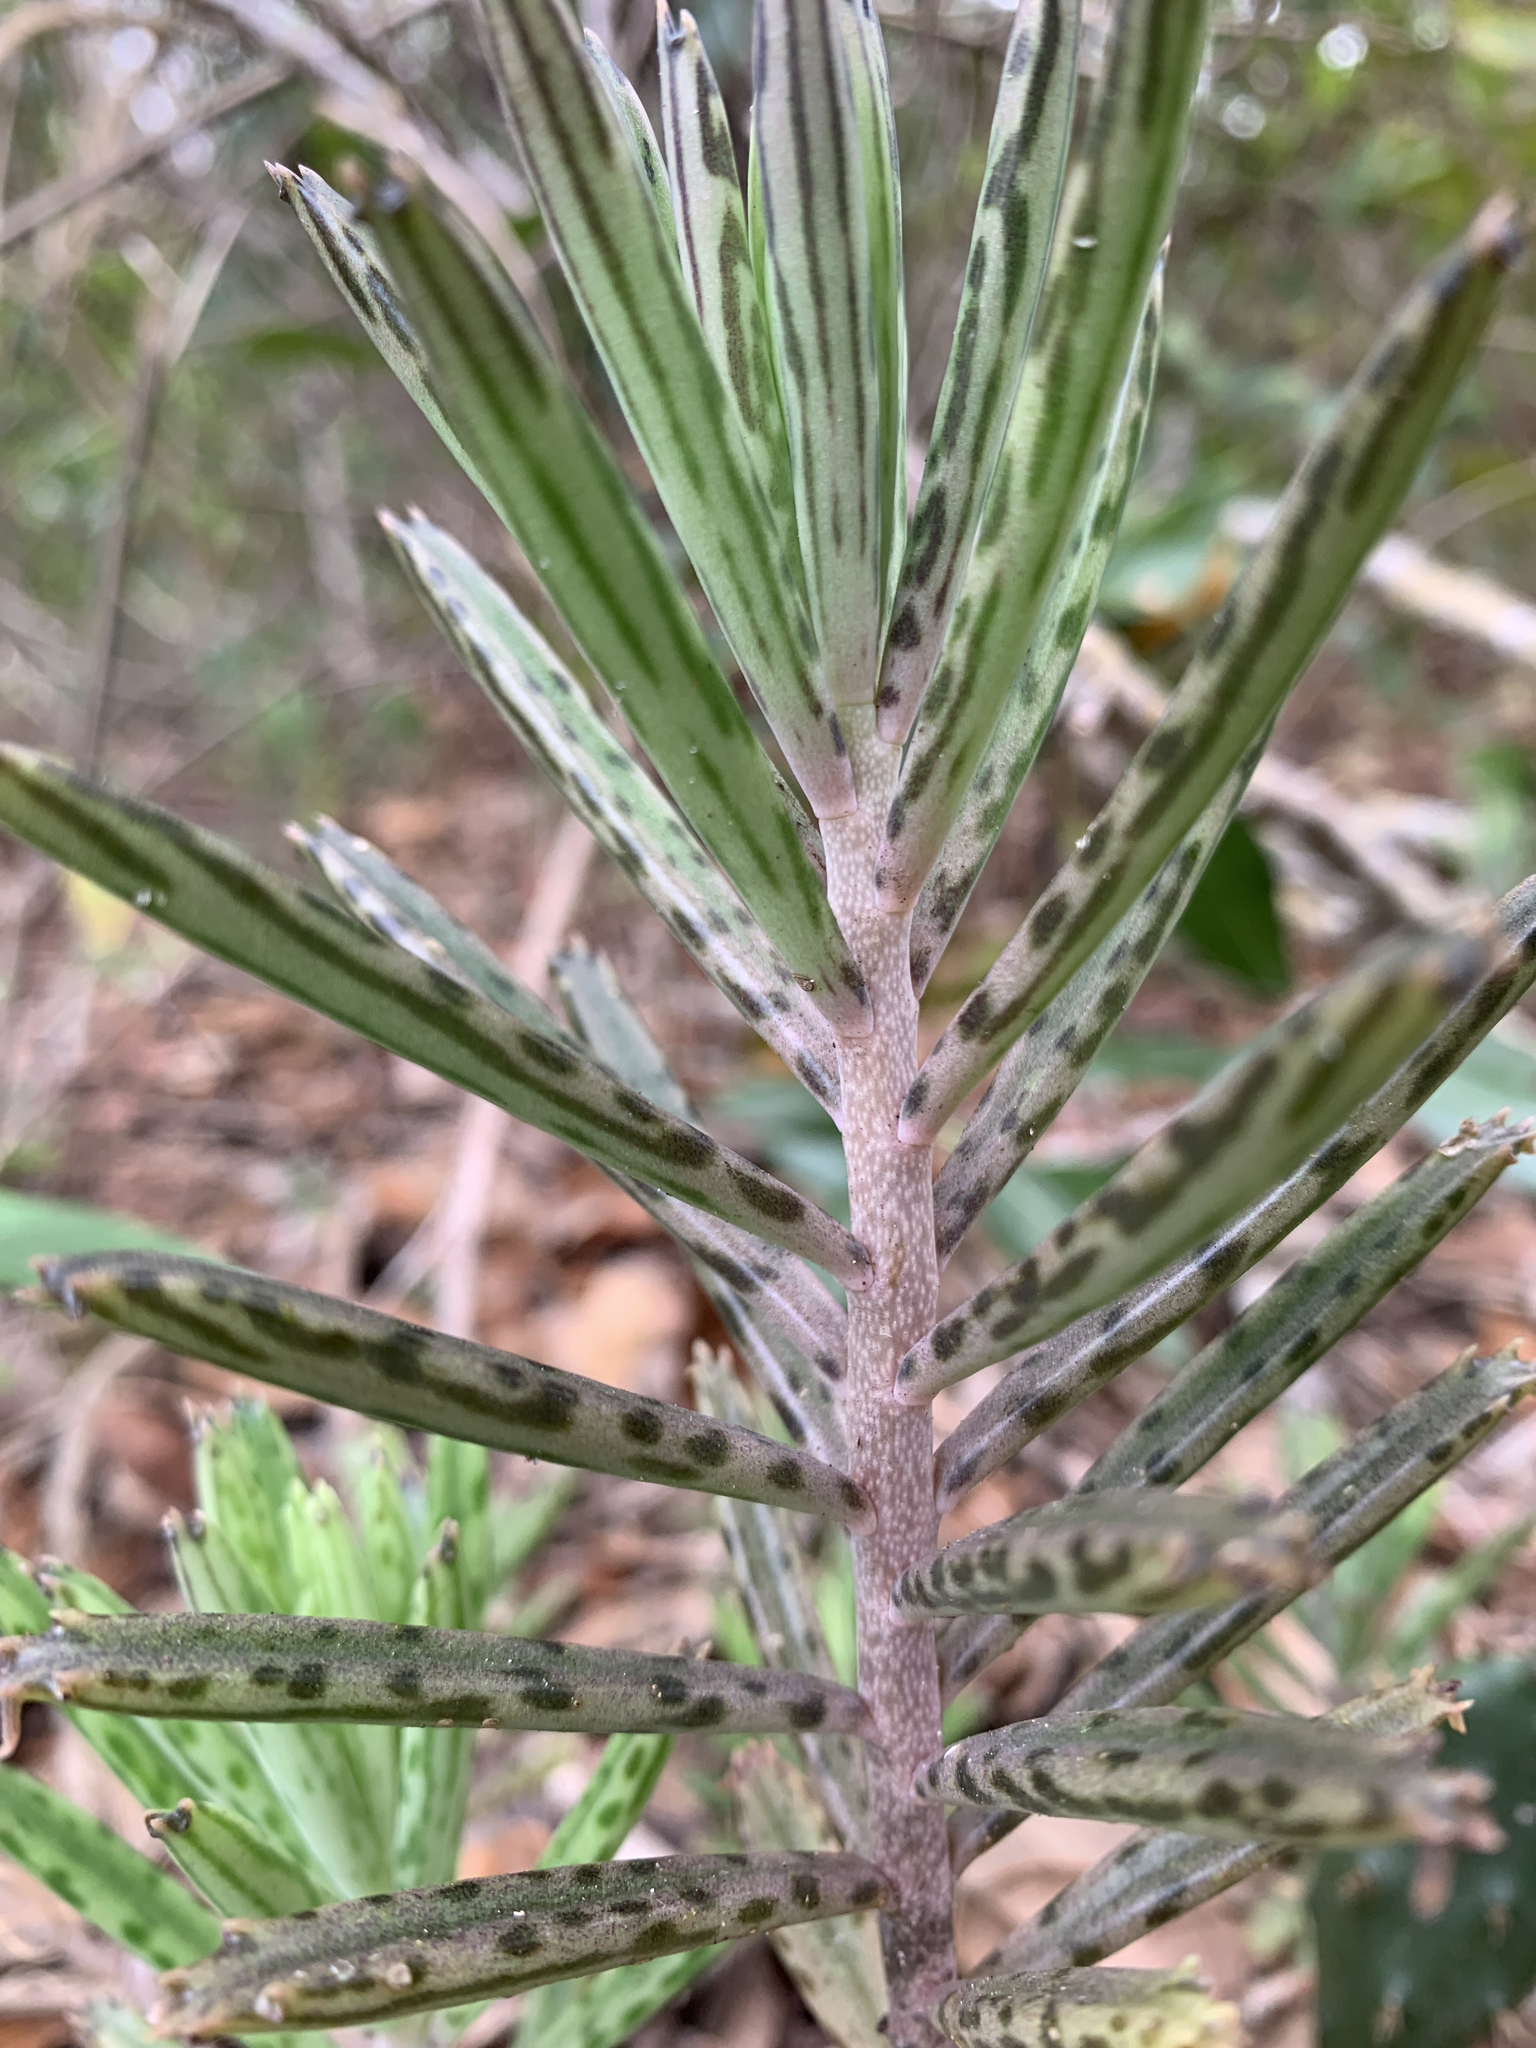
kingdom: Plantae
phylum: Tracheophyta
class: Magnoliopsida
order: Saxifragales
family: Crassulaceae
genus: Kalanchoe
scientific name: Kalanchoe delagoensis
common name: Chandelier plant
